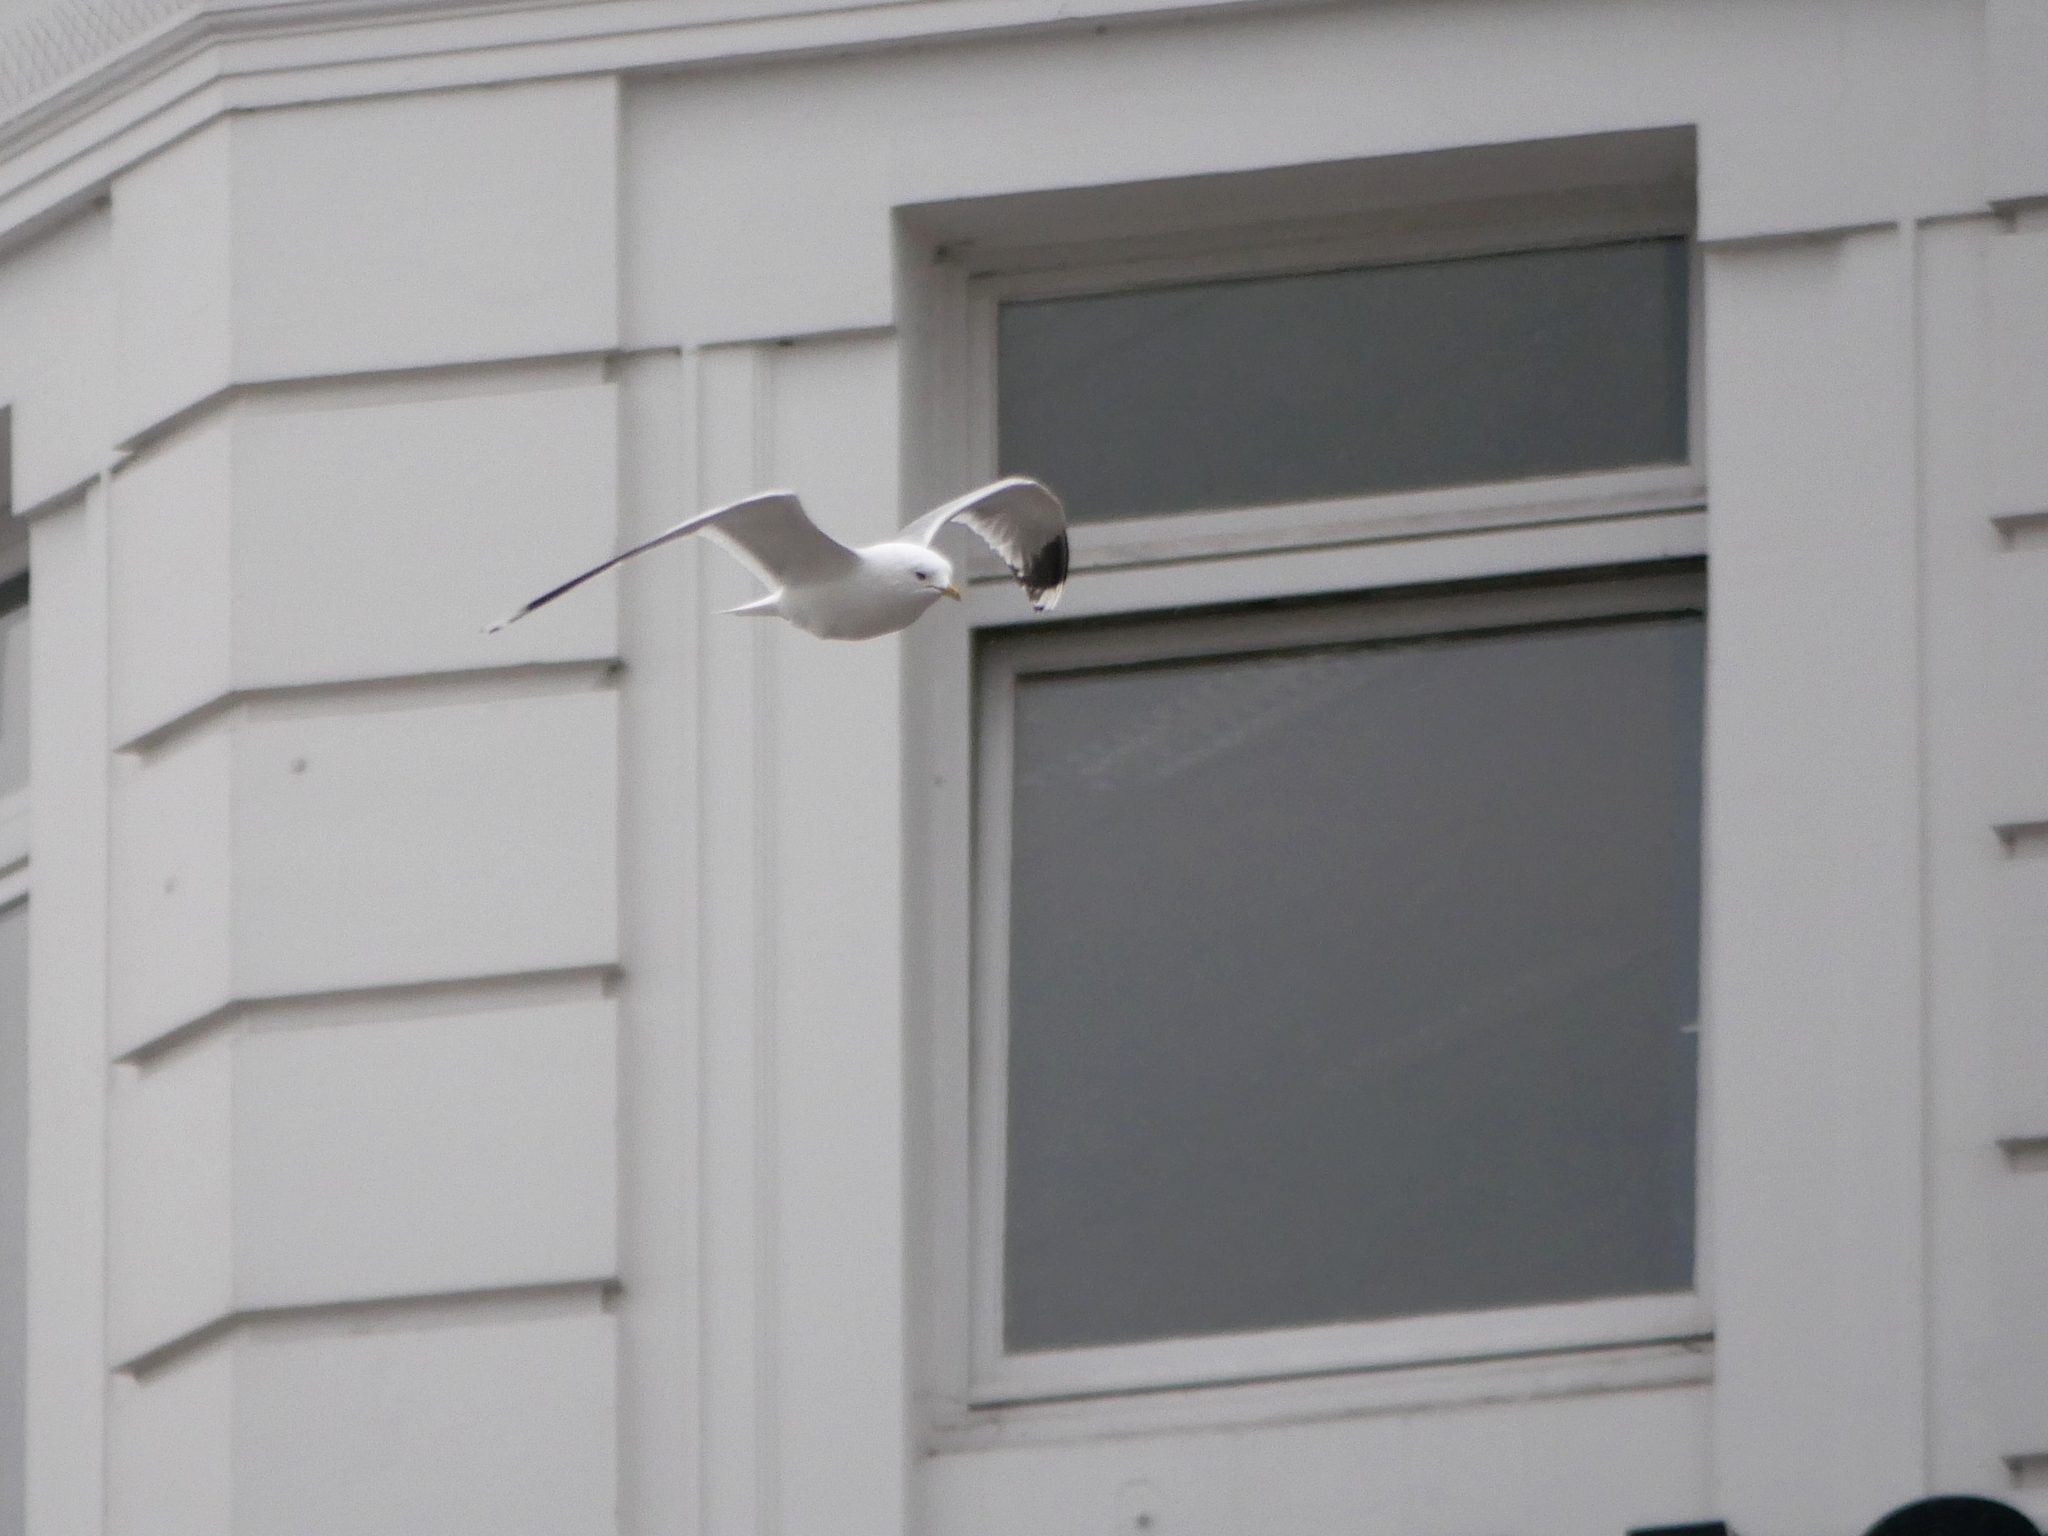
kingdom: Animalia
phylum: Chordata
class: Aves
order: Charadriiformes
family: Laridae
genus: Larus
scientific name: Larus canus
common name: Mew gull
